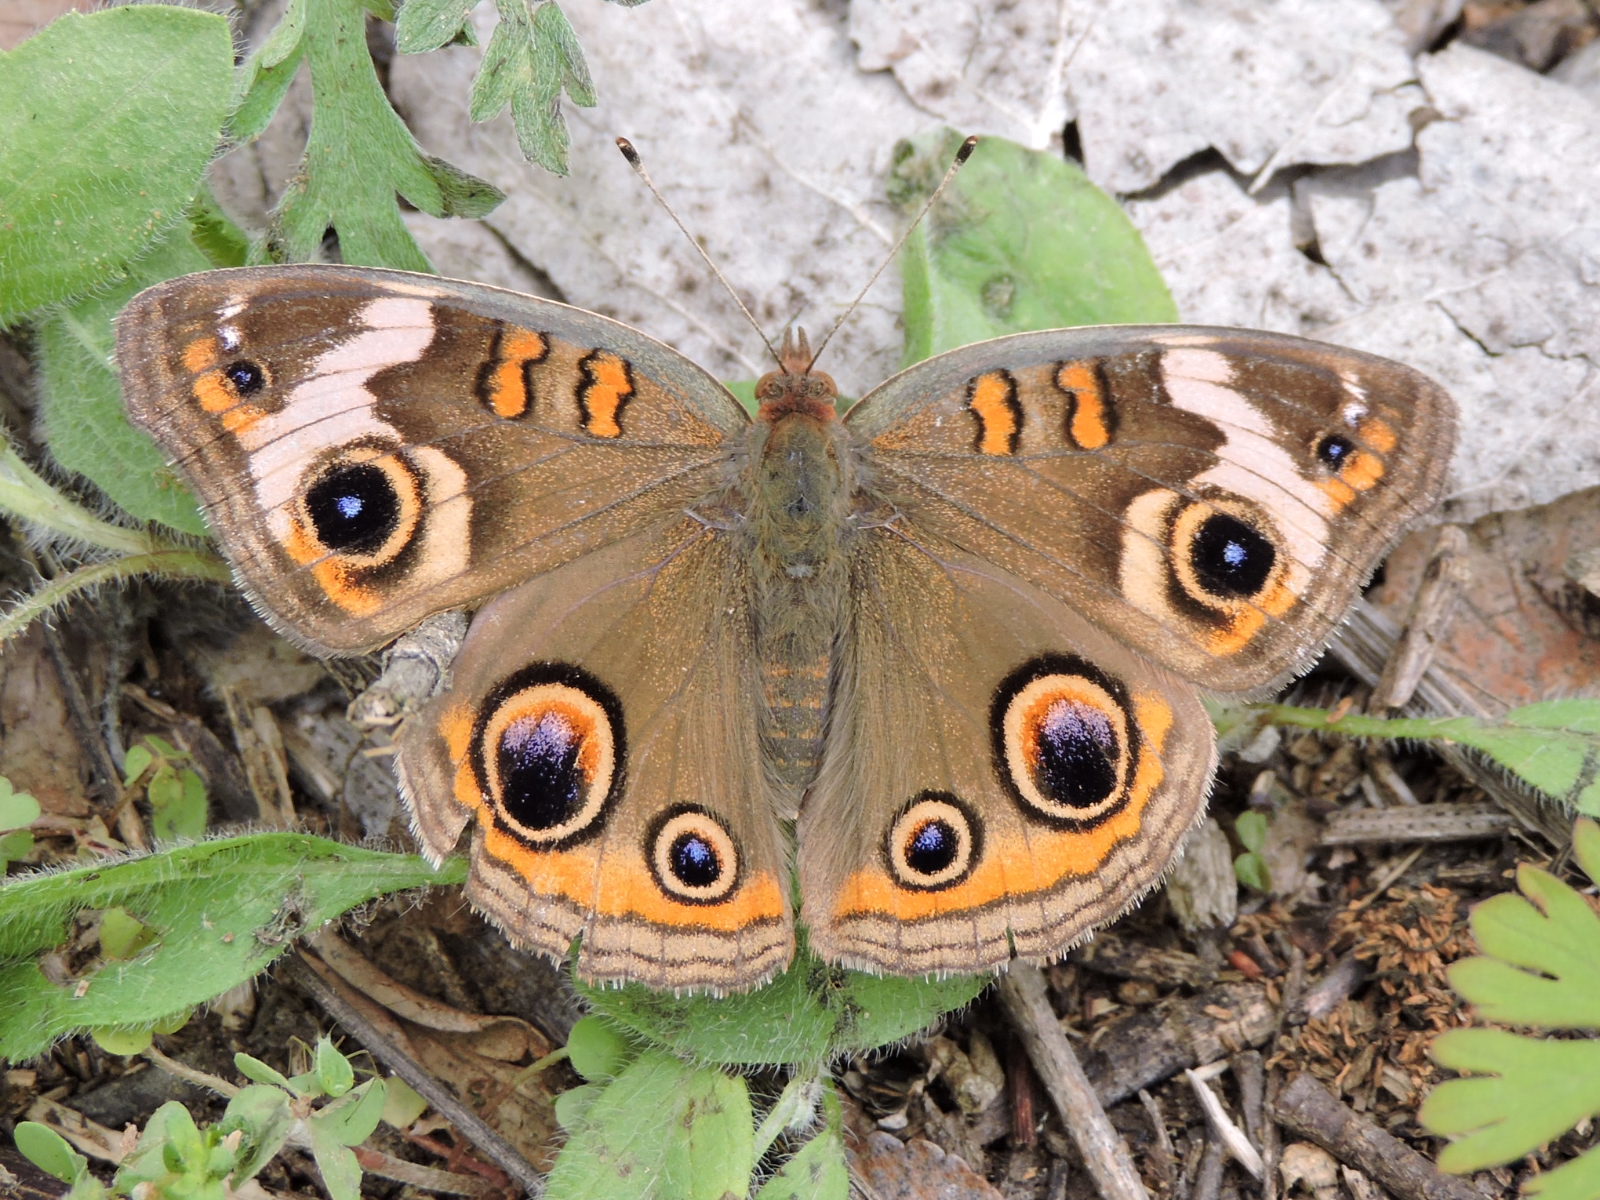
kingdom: Animalia
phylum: Arthropoda
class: Insecta
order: Lepidoptera
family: Nymphalidae
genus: Junonia
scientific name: Junonia coenia
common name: Common buckeye
